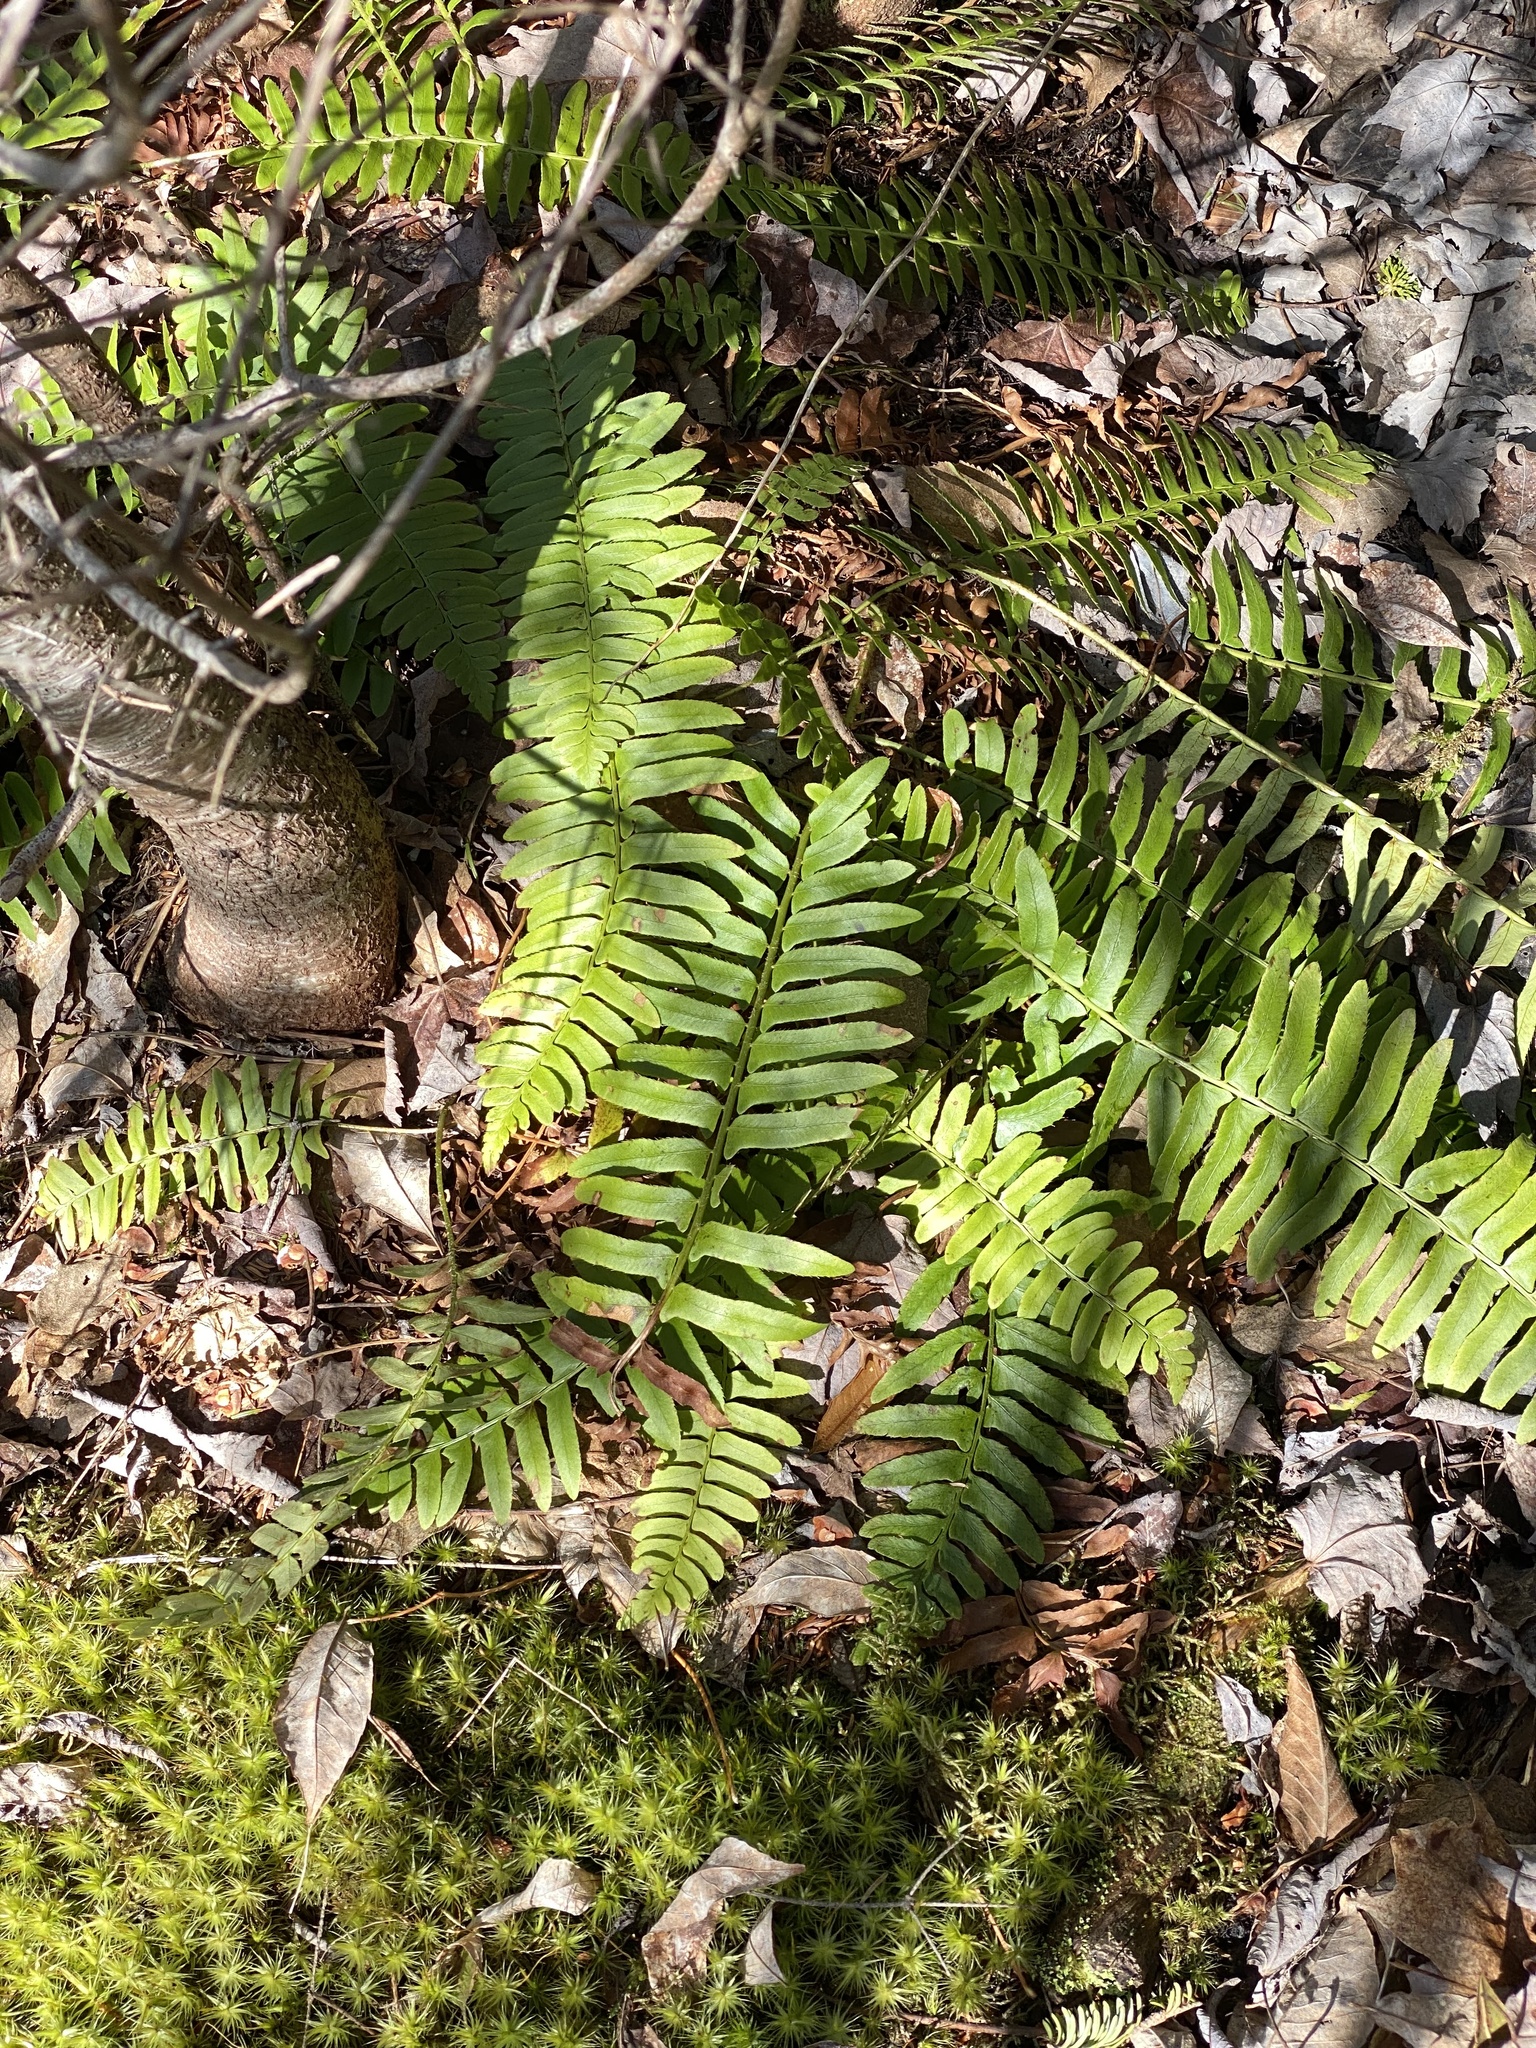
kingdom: Plantae
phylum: Tracheophyta
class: Polypodiopsida
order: Polypodiales
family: Dryopteridaceae
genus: Polystichum
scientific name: Polystichum acrostichoides
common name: Christmas fern
